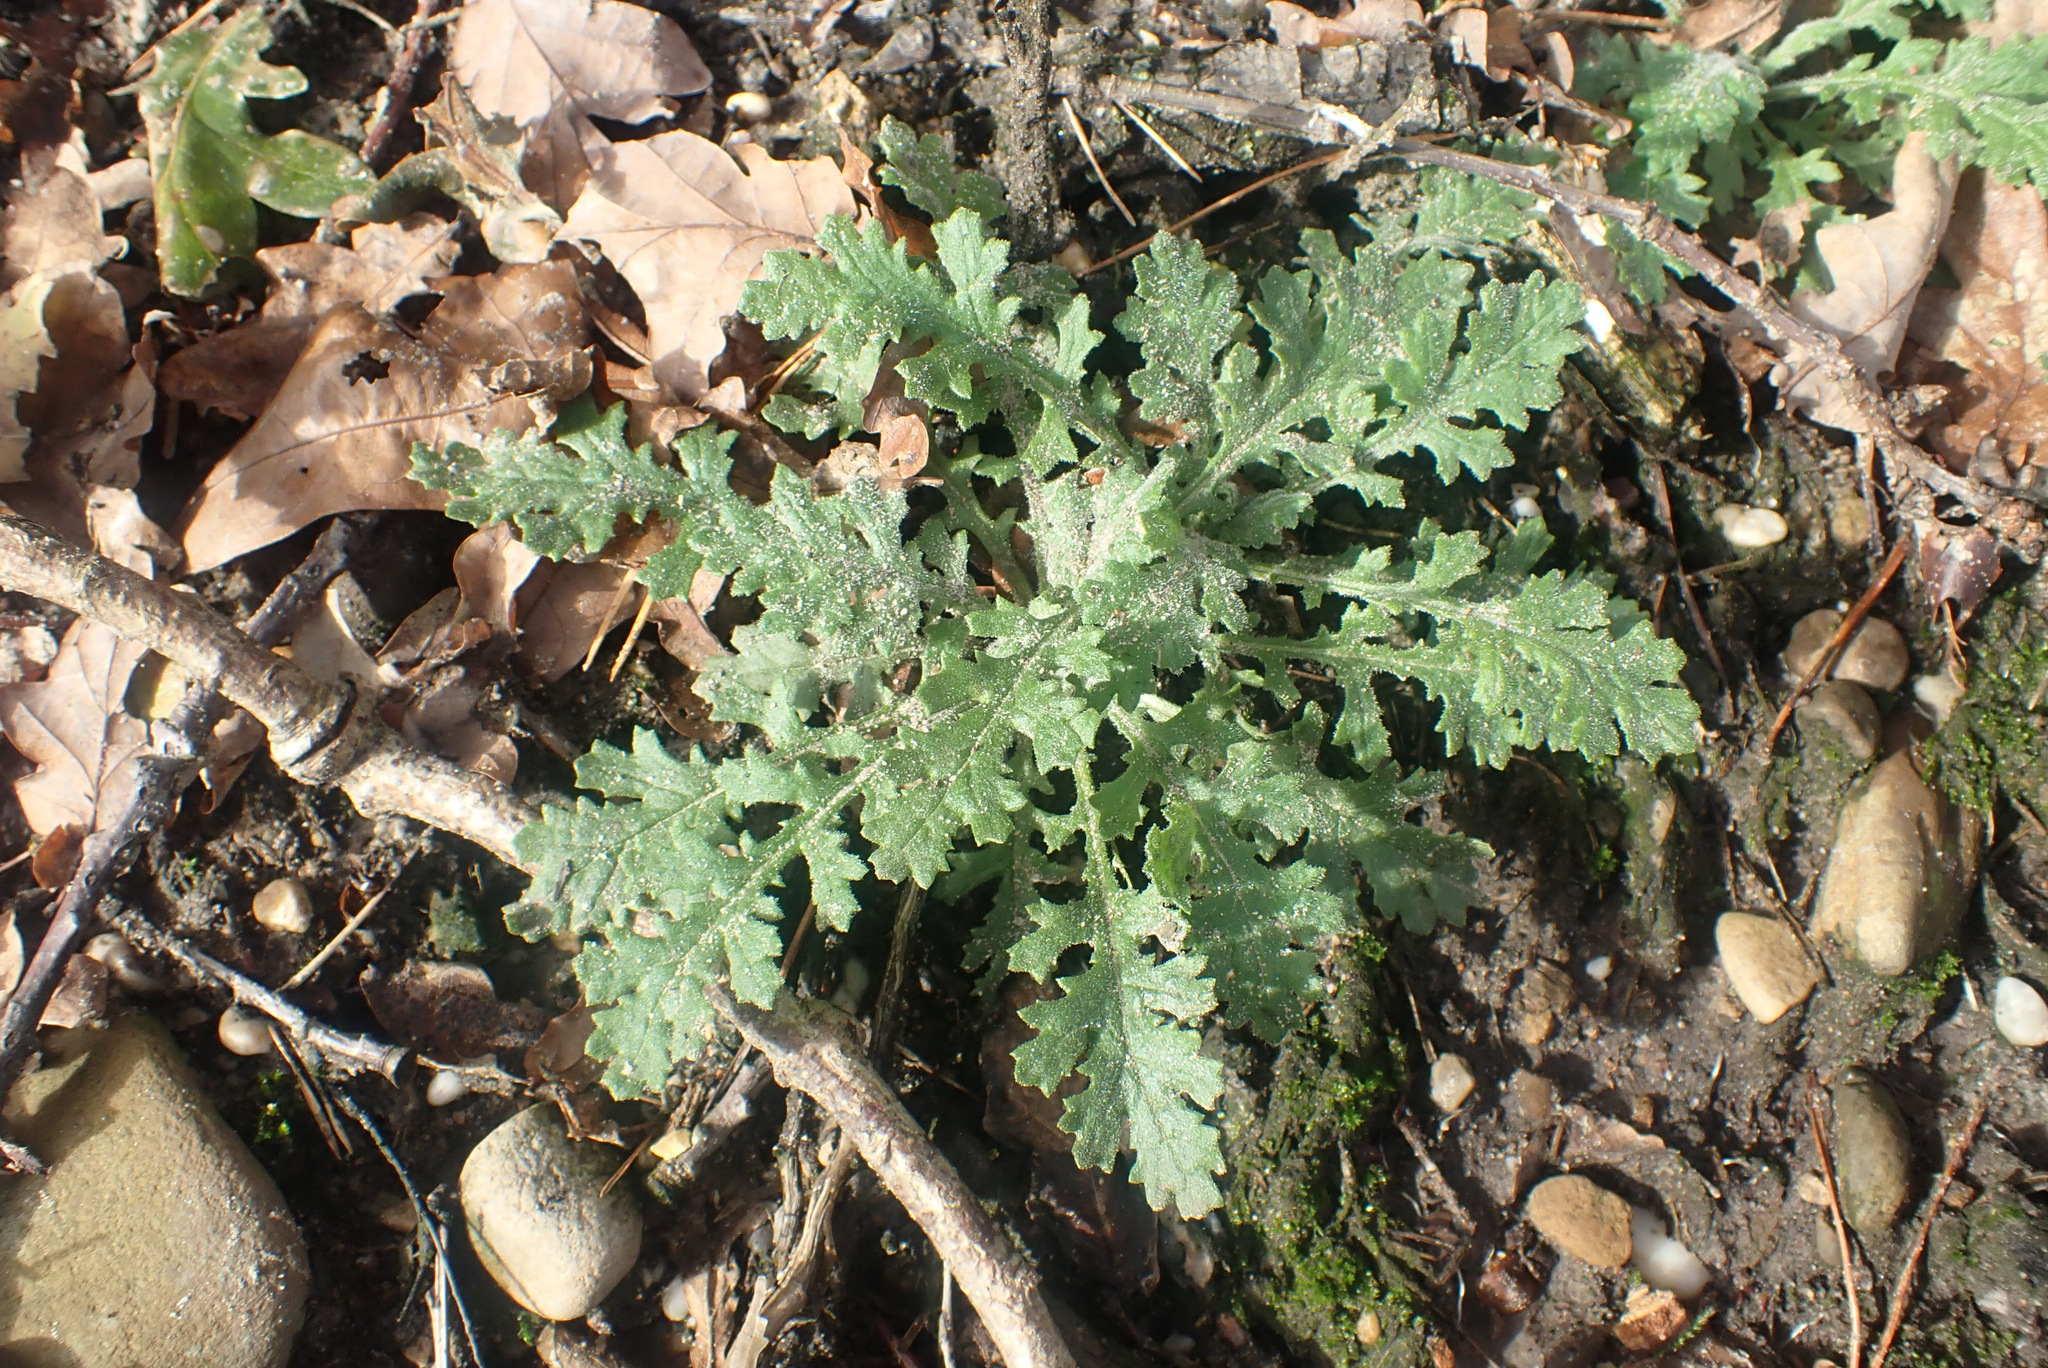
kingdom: Plantae
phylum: Tracheophyta
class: Magnoliopsida
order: Asterales
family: Asteraceae
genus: Senecio
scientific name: Senecio sylvaticus
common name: Woodland ragwort
